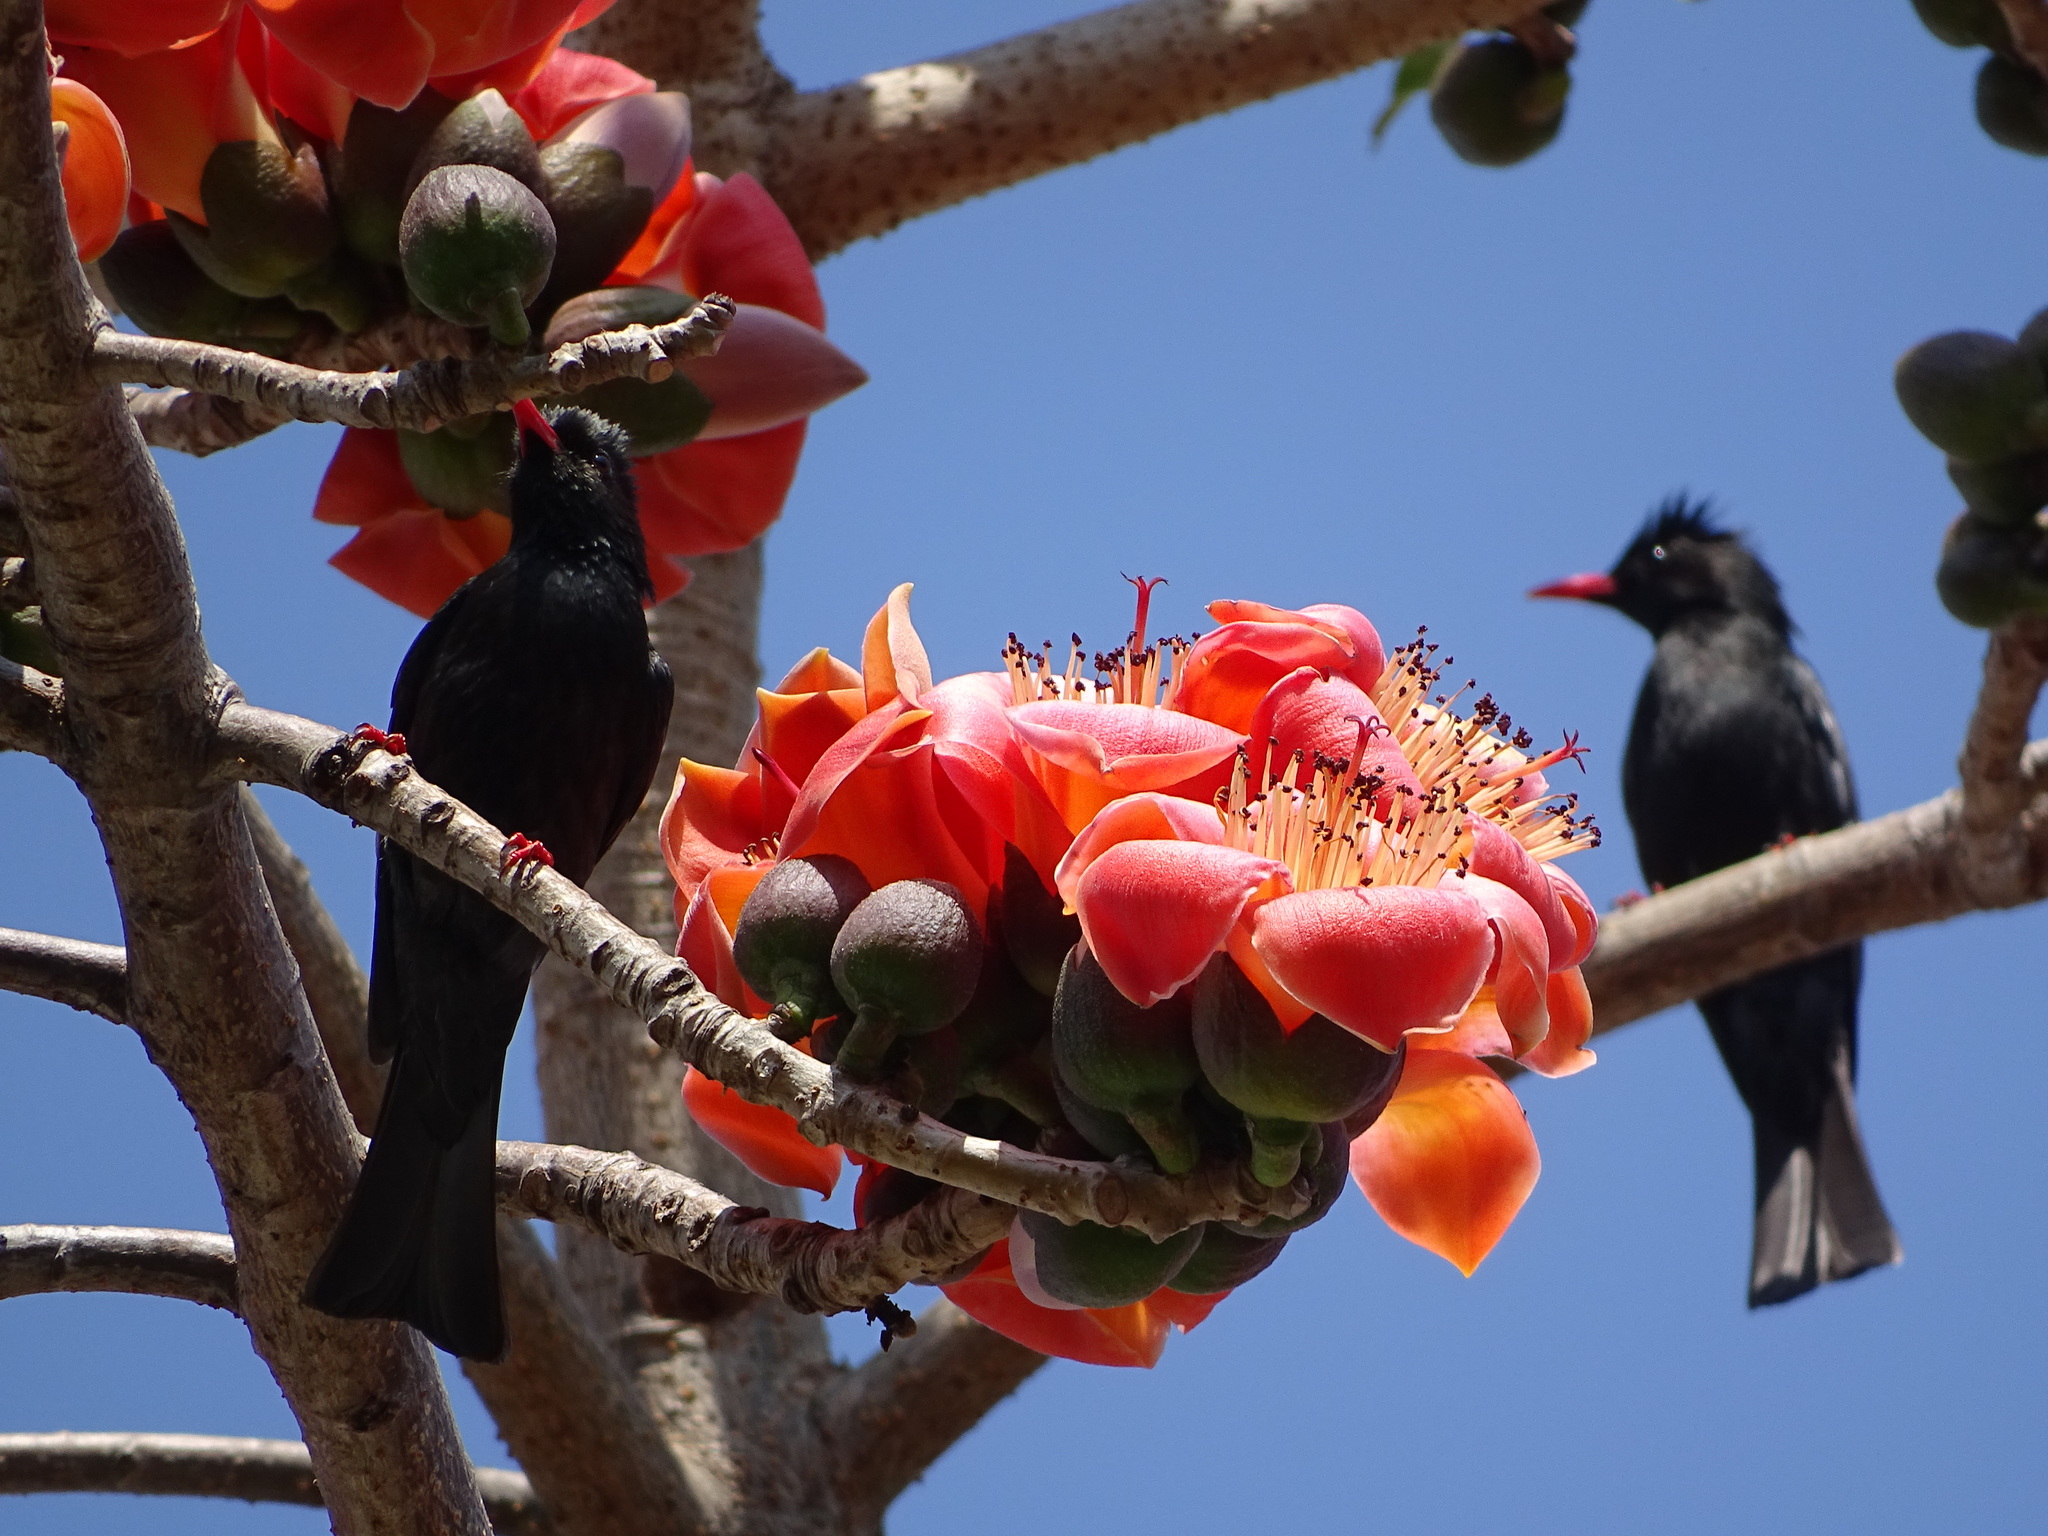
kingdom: Animalia
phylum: Chordata
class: Aves
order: Passeriformes
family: Pycnonotidae
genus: Hypsipetes
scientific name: Hypsipetes leucocephalus
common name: Black bulbul
